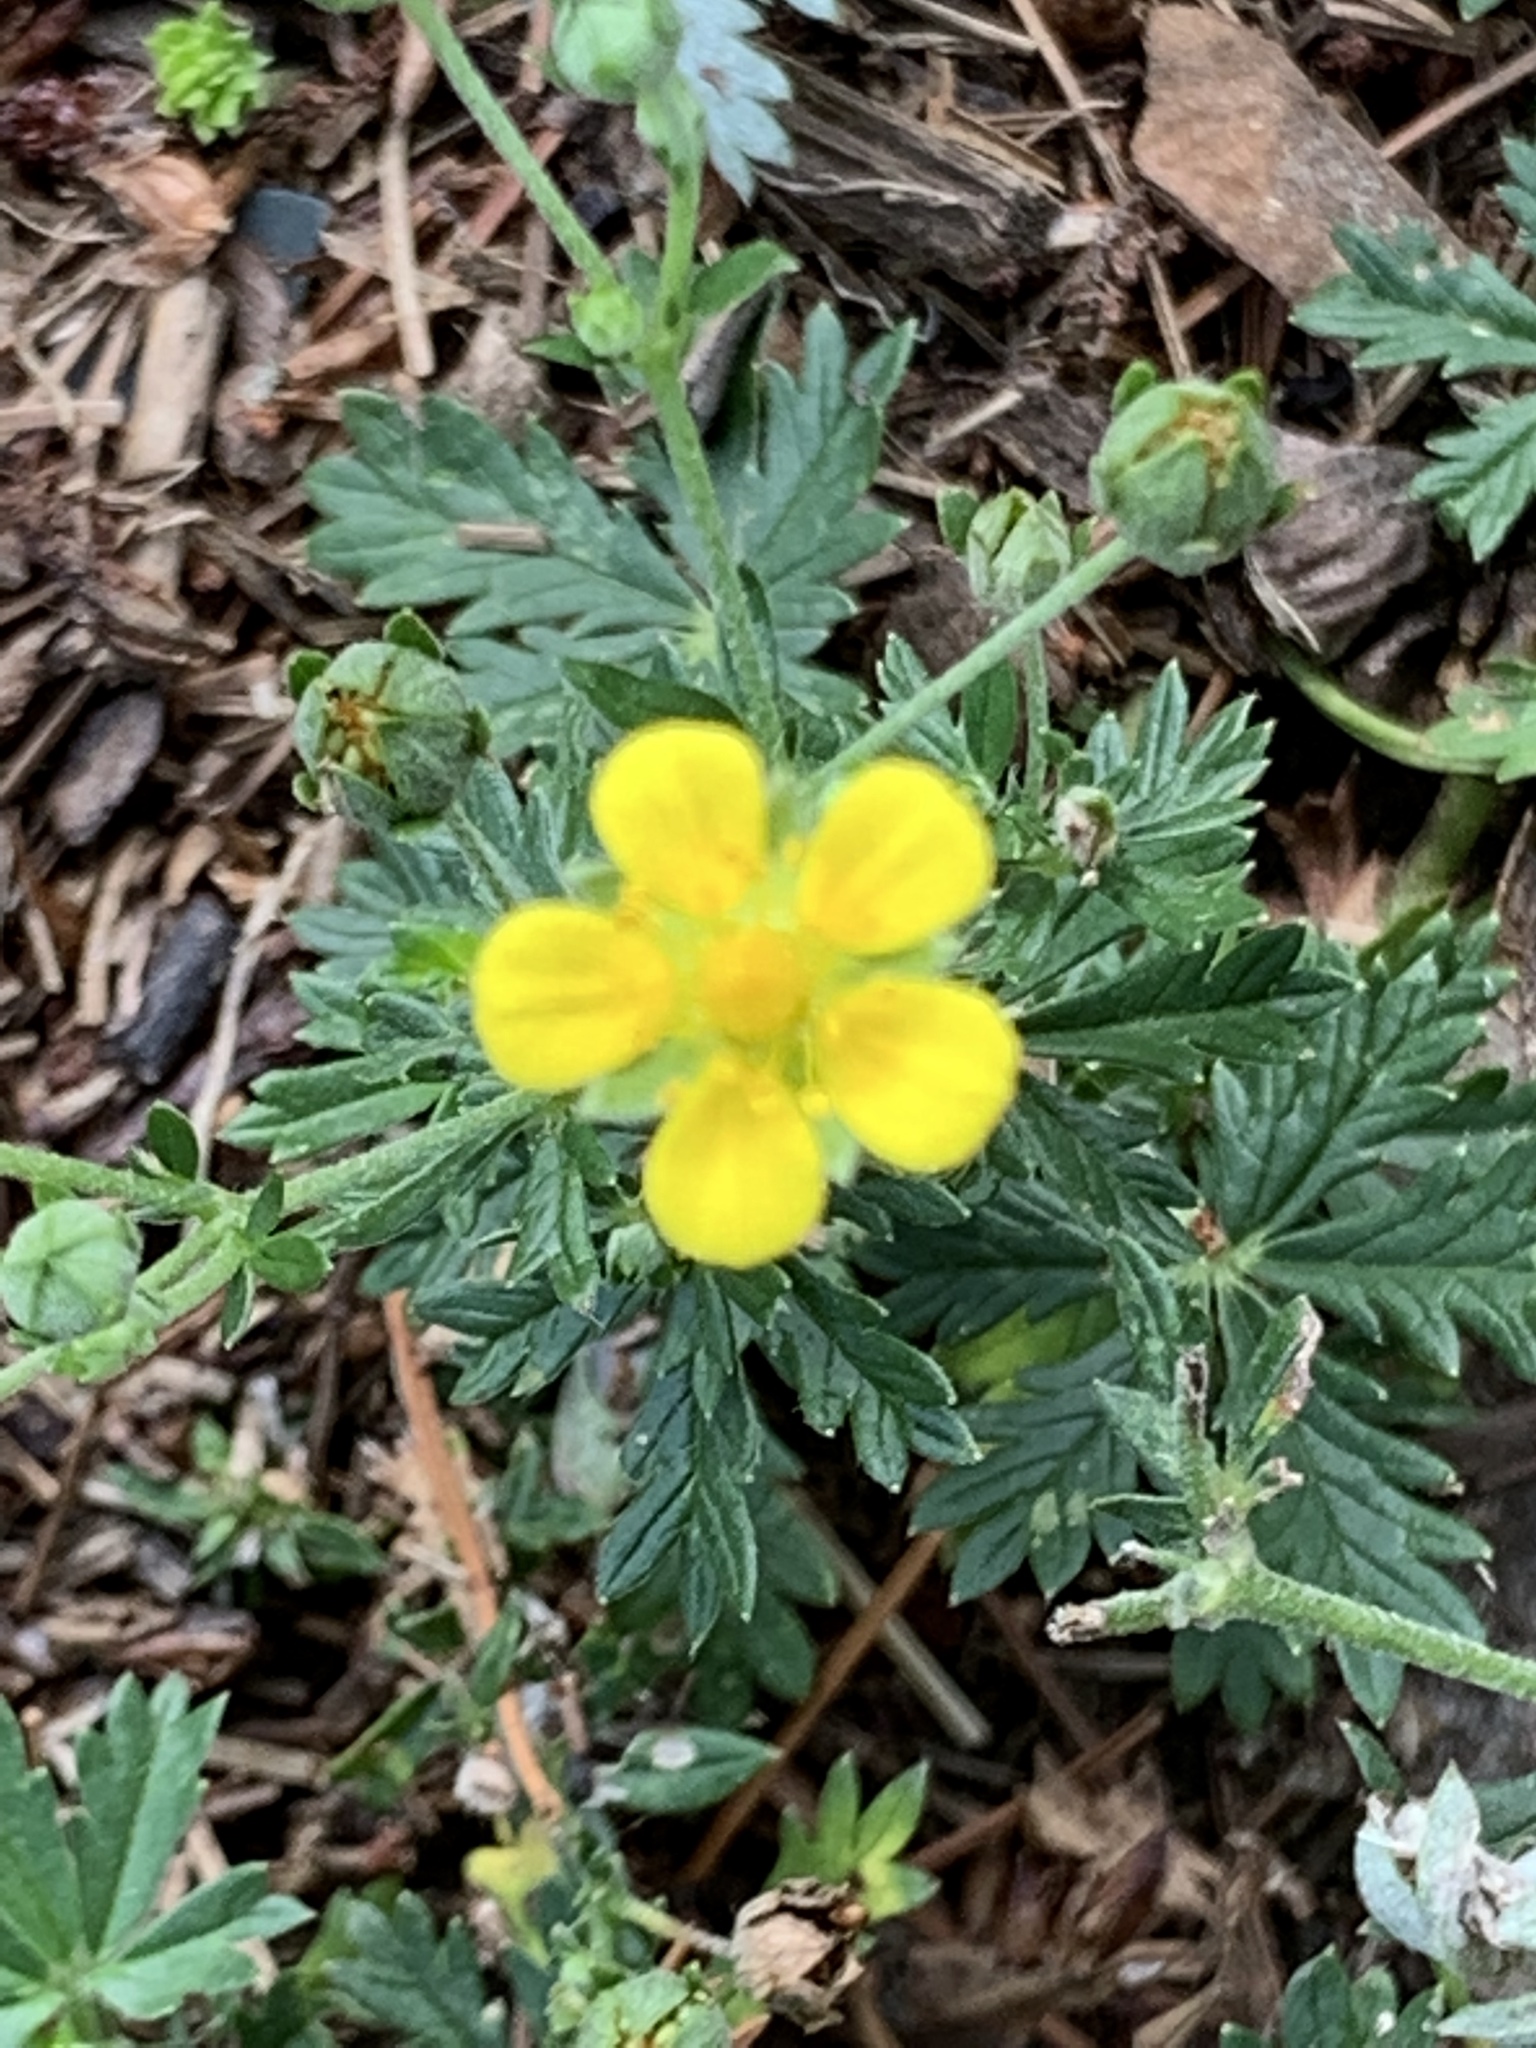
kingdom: Plantae
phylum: Tracheophyta
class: Magnoliopsida
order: Rosales
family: Rosaceae
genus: Potentilla
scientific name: Potentilla argentea
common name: Hoary cinquefoil
